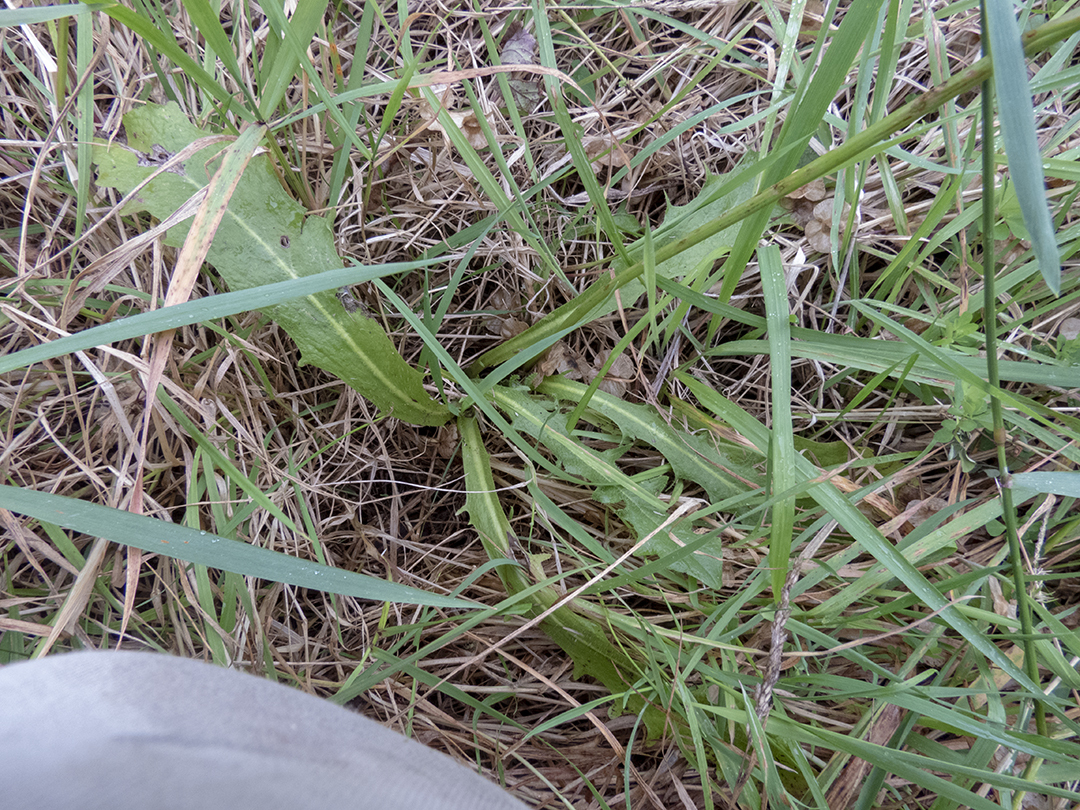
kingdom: Plantae
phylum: Tracheophyta
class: Magnoliopsida
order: Asterales
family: Asteraceae
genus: Hypochaeris
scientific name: Hypochaeris radicata
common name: Flatweed
